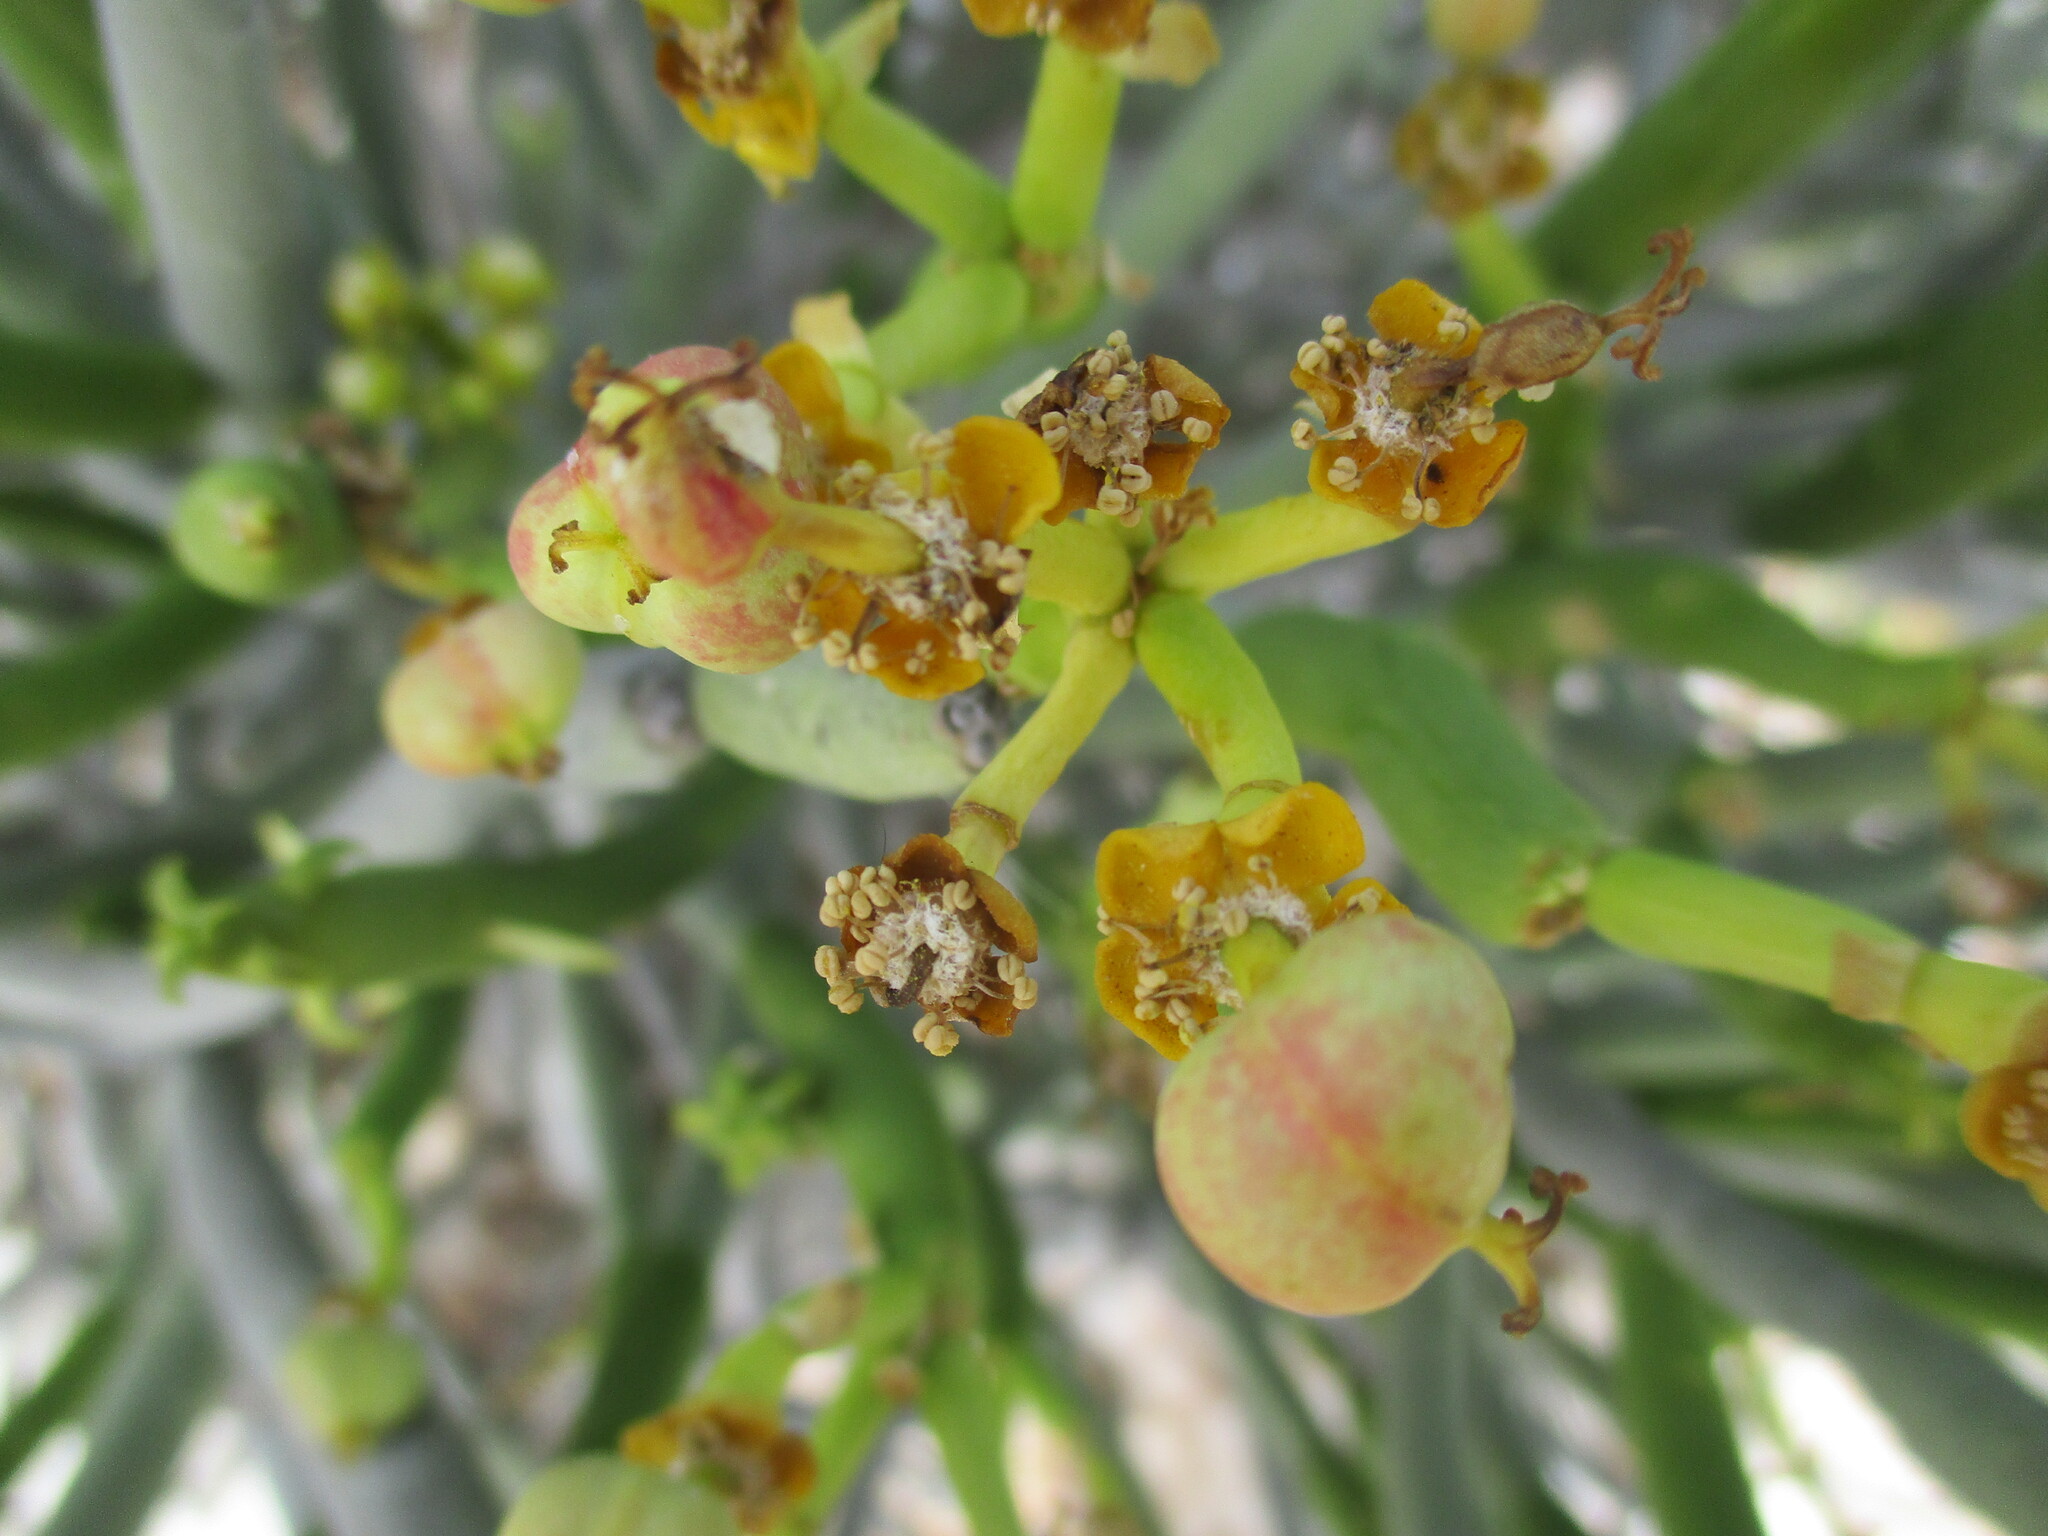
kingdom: Plantae
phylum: Tracheophyta
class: Magnoliopsida
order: Malpighiales
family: Euphorbiaceae
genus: Euphorbia
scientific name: Euphorbia mauritanica
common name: Jackal's-food
